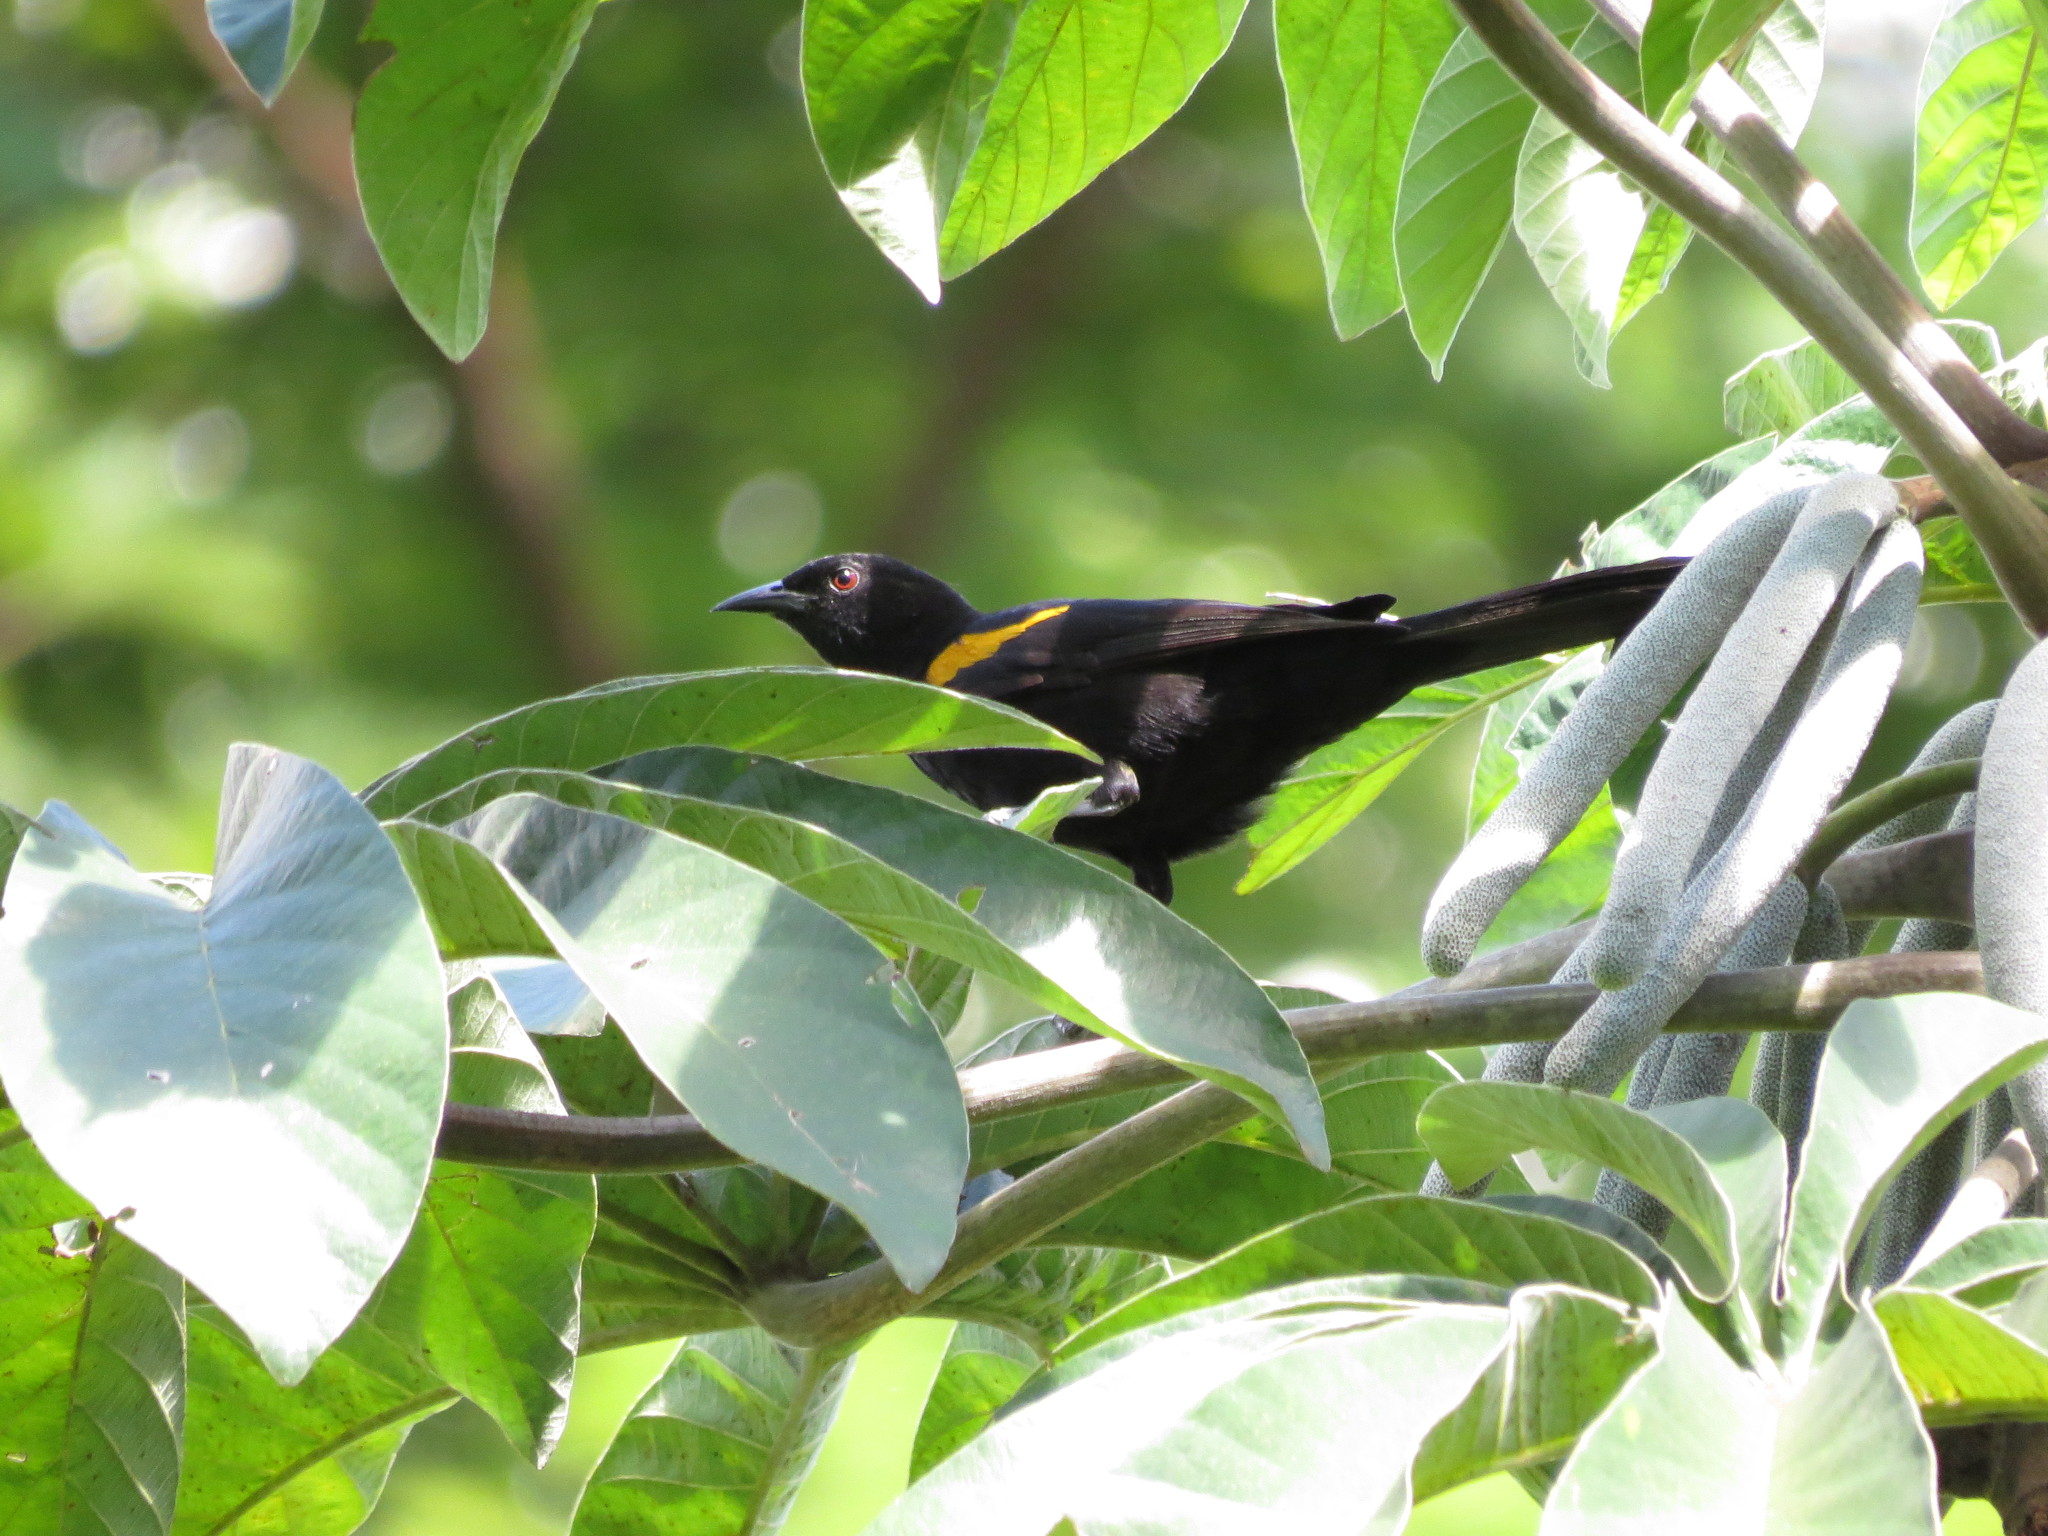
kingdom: Animalia
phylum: Chordata
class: Aves
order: Passeriformes
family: Icteridae
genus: Icterus
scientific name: Icterus cayanensis
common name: Epaulet oriole
